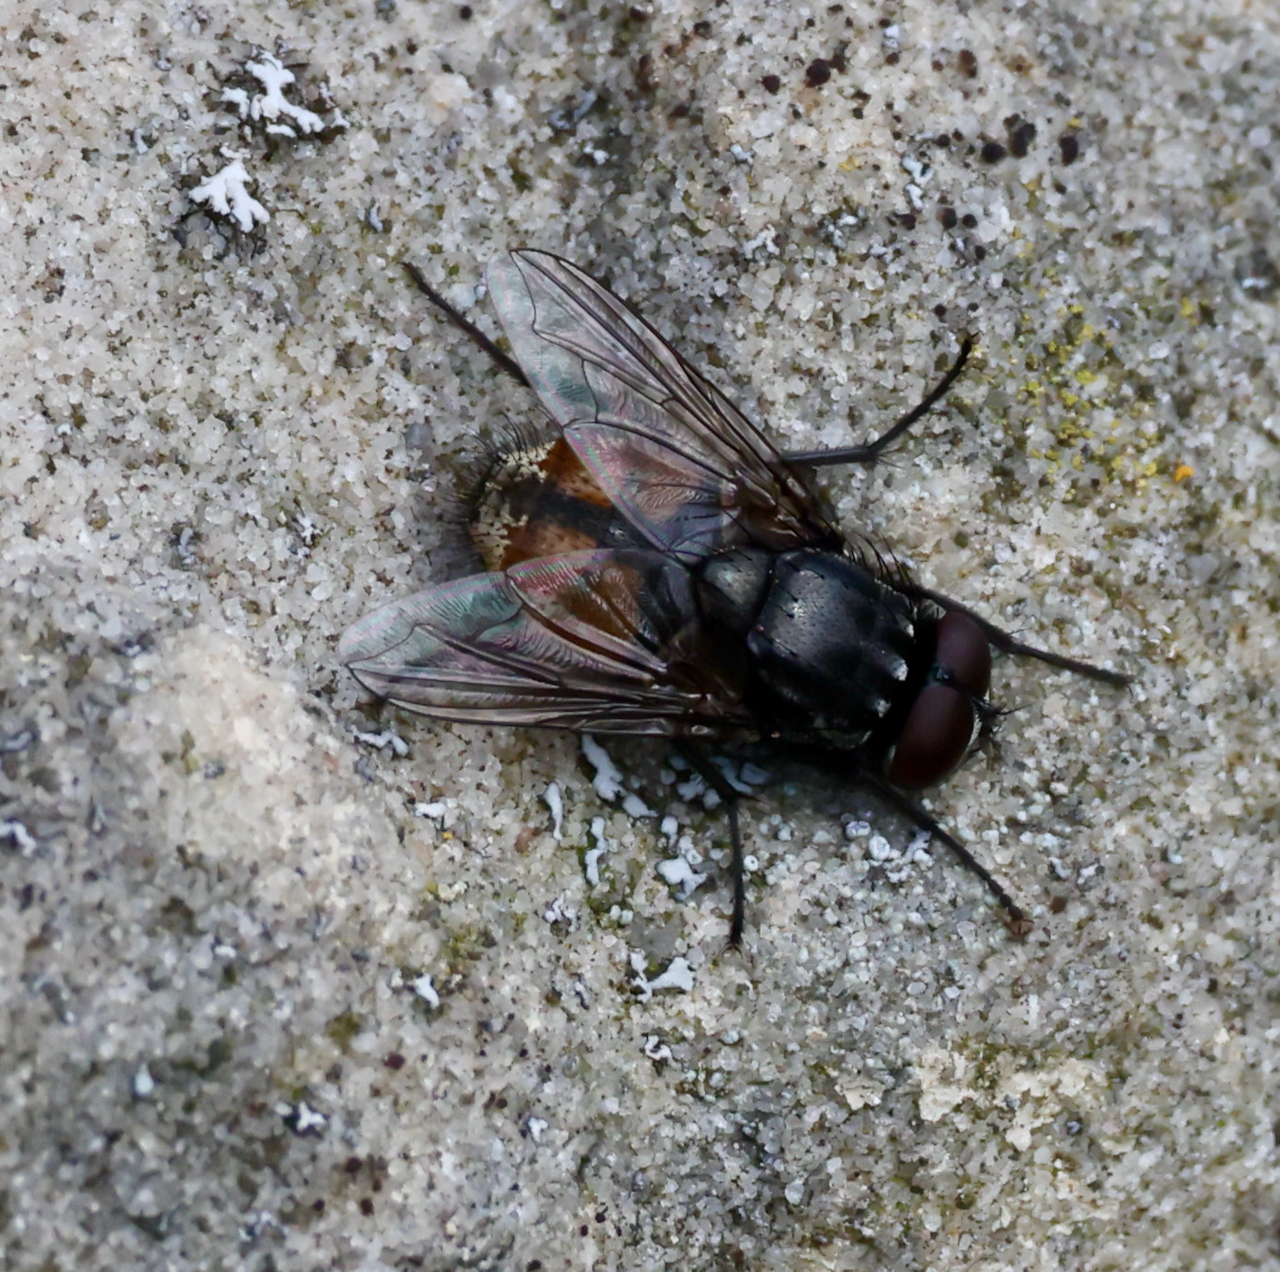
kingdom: Animalia
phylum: Arthropoda
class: Insecta
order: Diptera
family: Muscidae
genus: Musca
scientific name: Musca autumnalis
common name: Face fly
